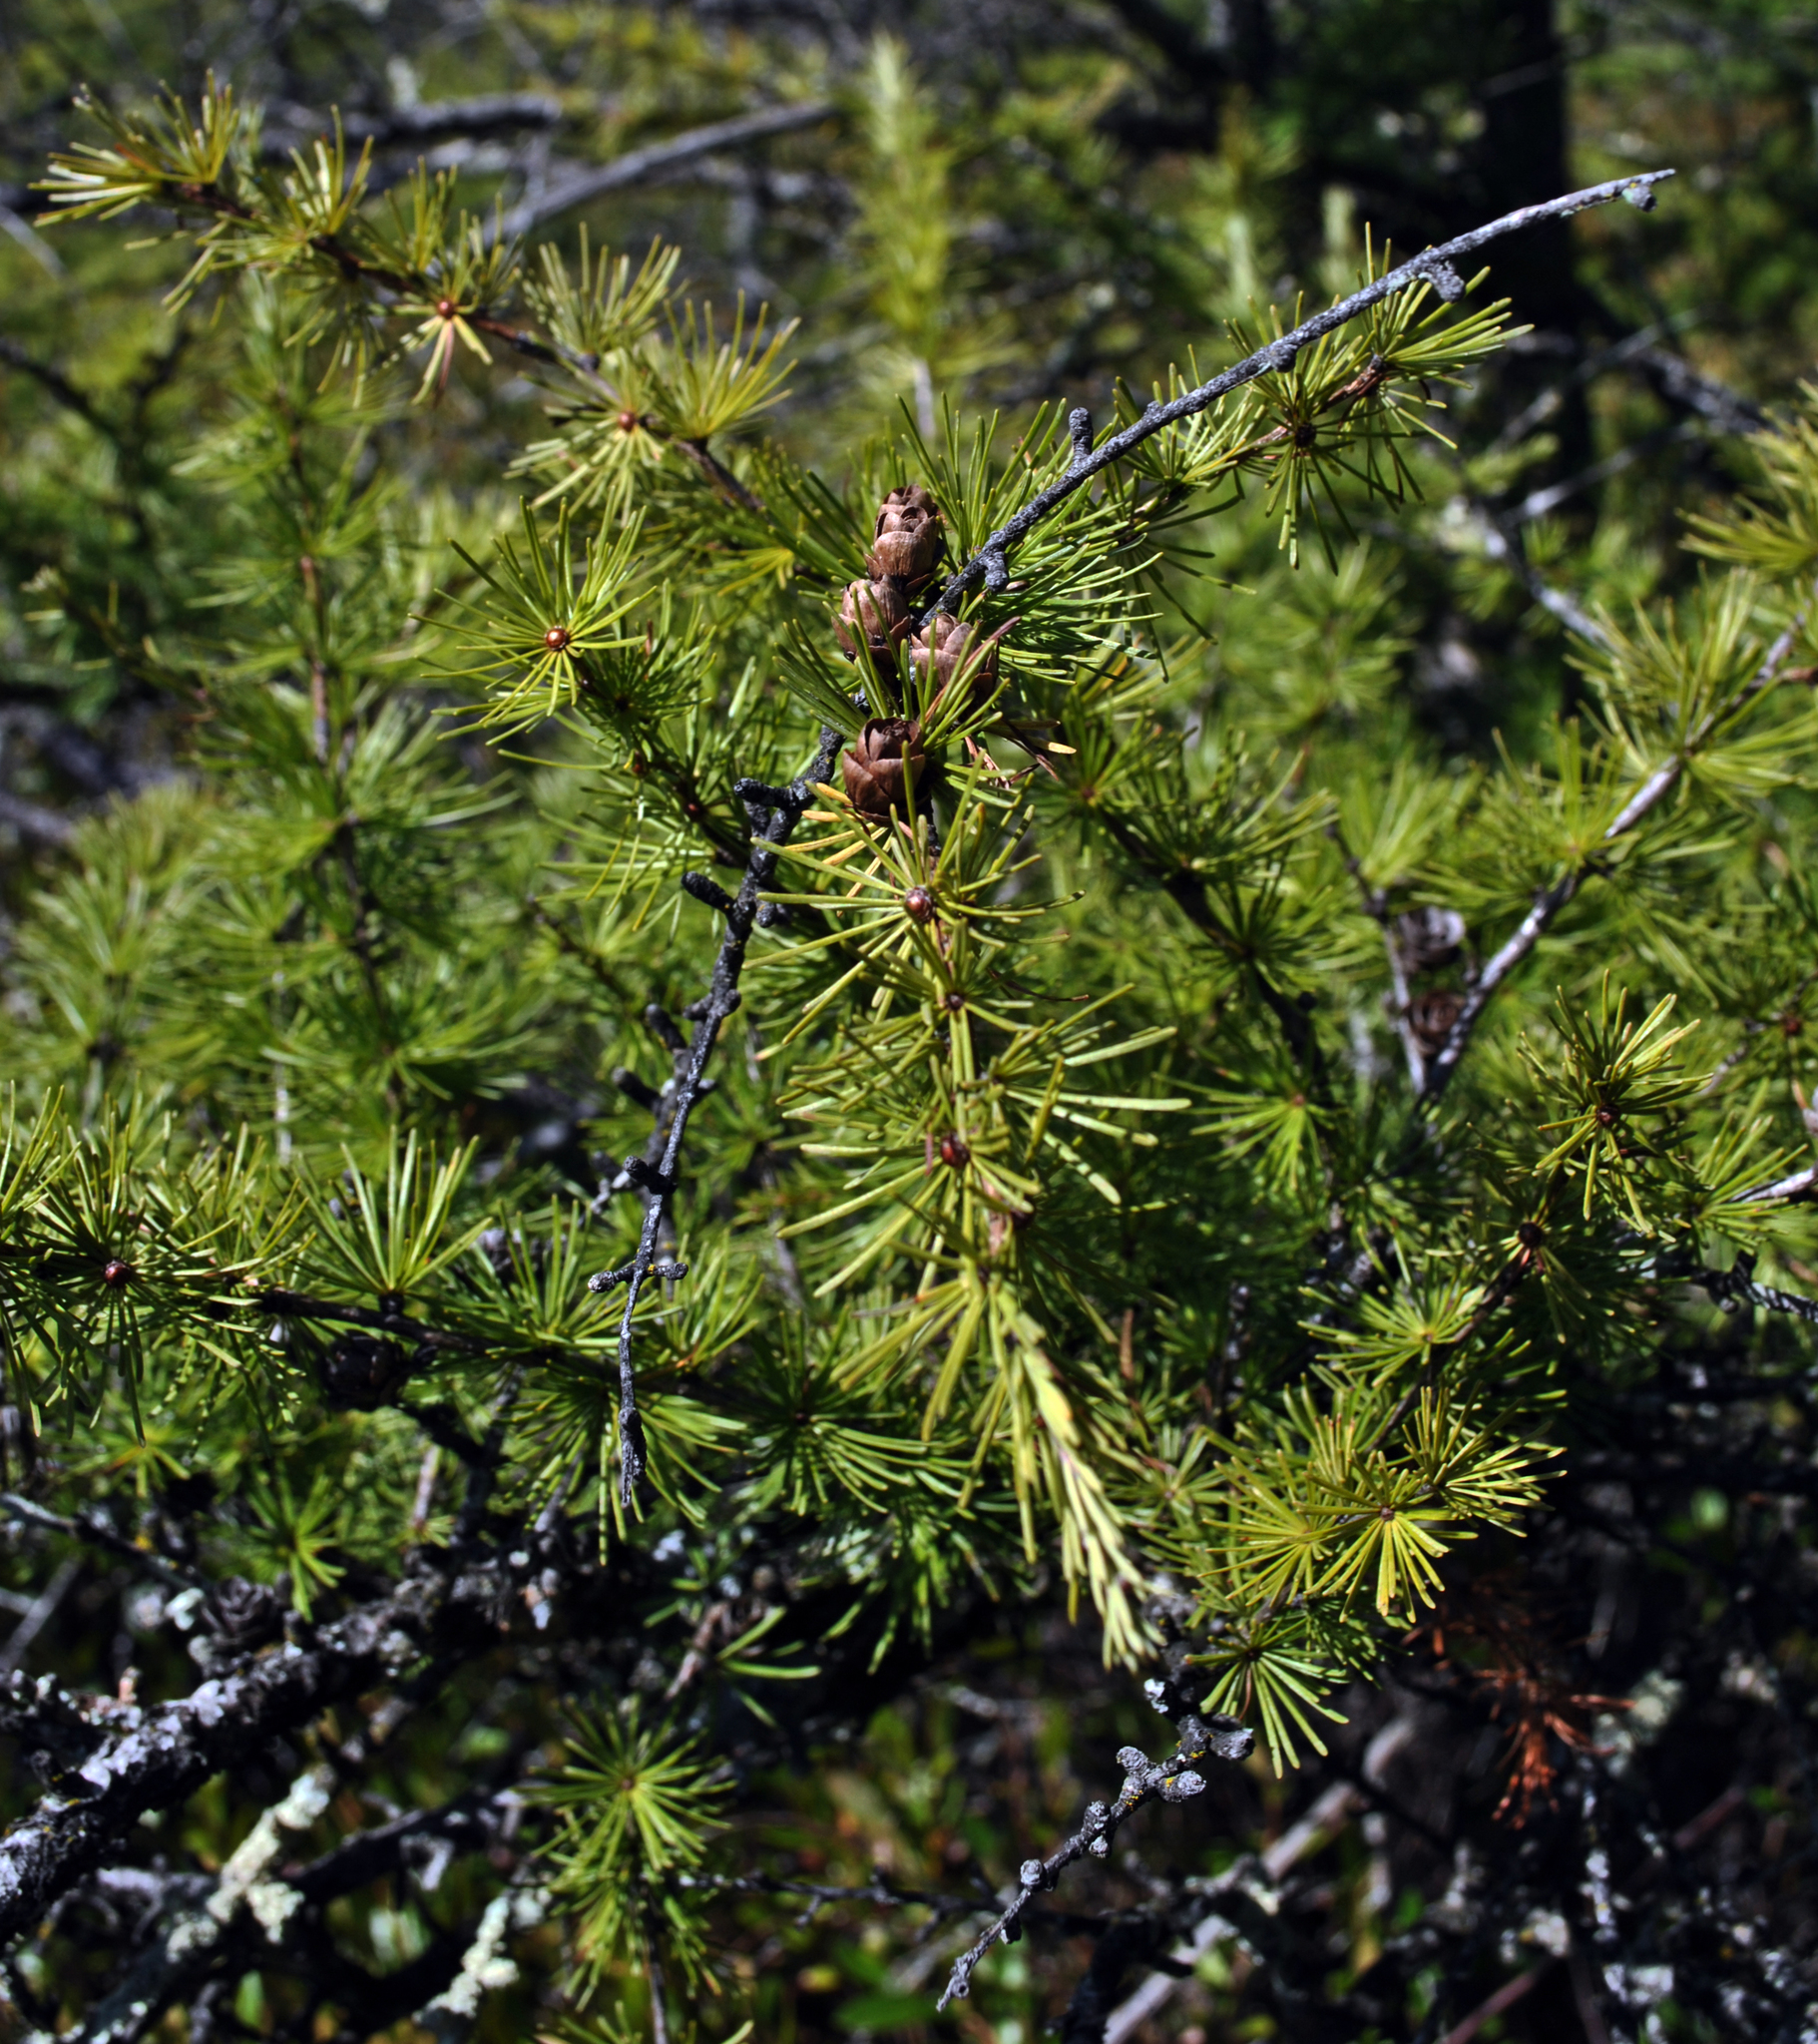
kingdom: Plantae
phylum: Tracheophyta
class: Pinopsida
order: Pinales
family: Pinaceae
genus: Larix
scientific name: Larix laricina
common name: American larch
